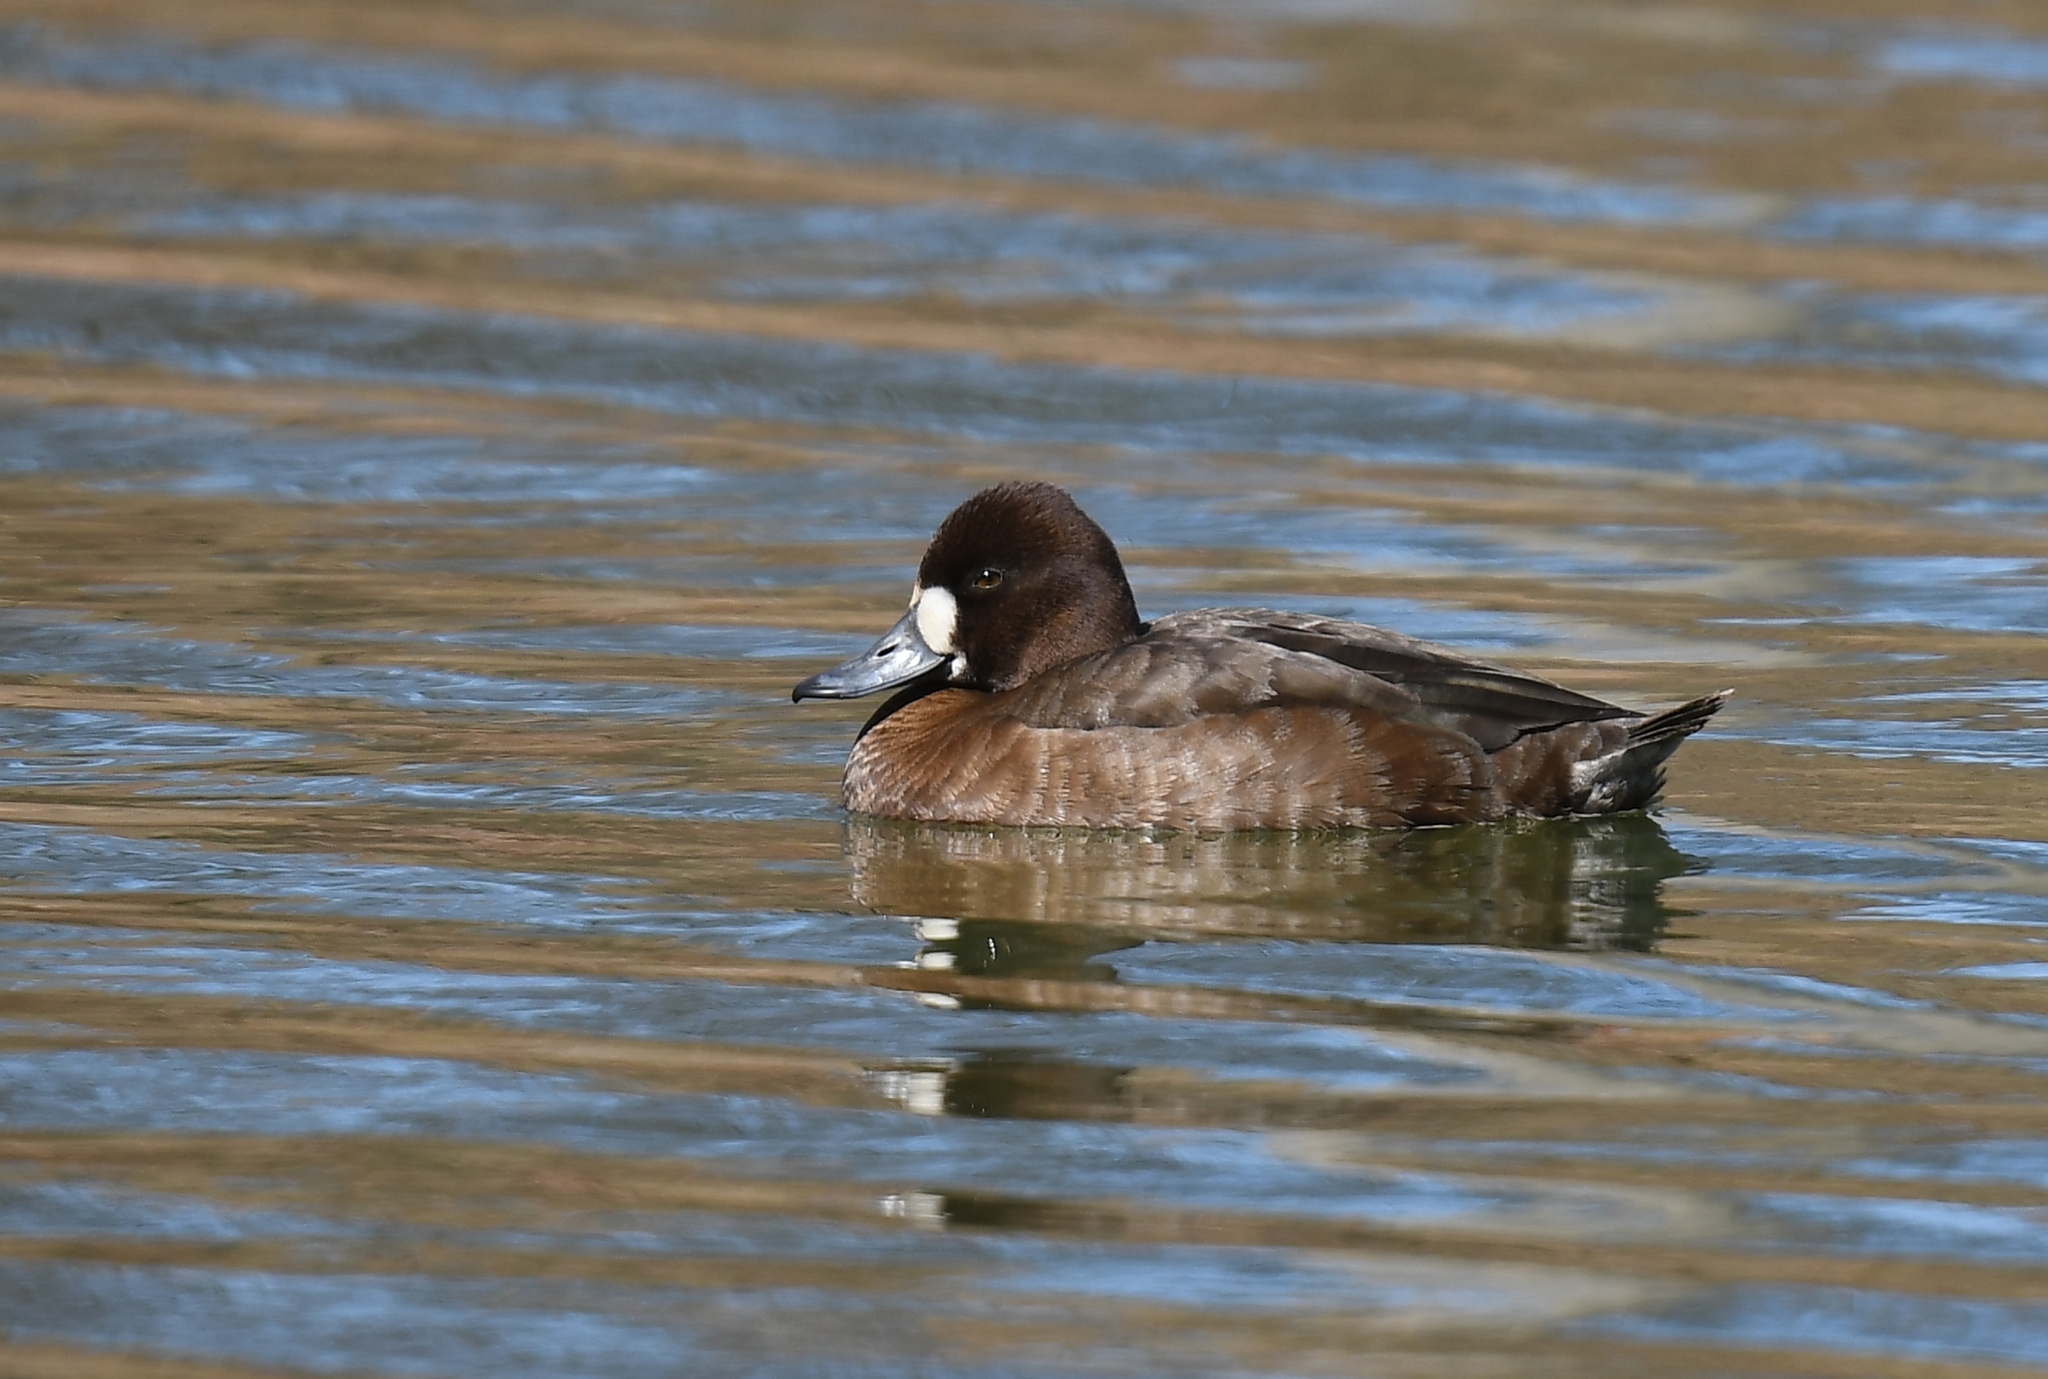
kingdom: Animalia
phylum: Chordata
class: Aves
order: Anseriformes
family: Anatidae
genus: Aythya
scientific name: Aythya affinis
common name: Lesser scaup
